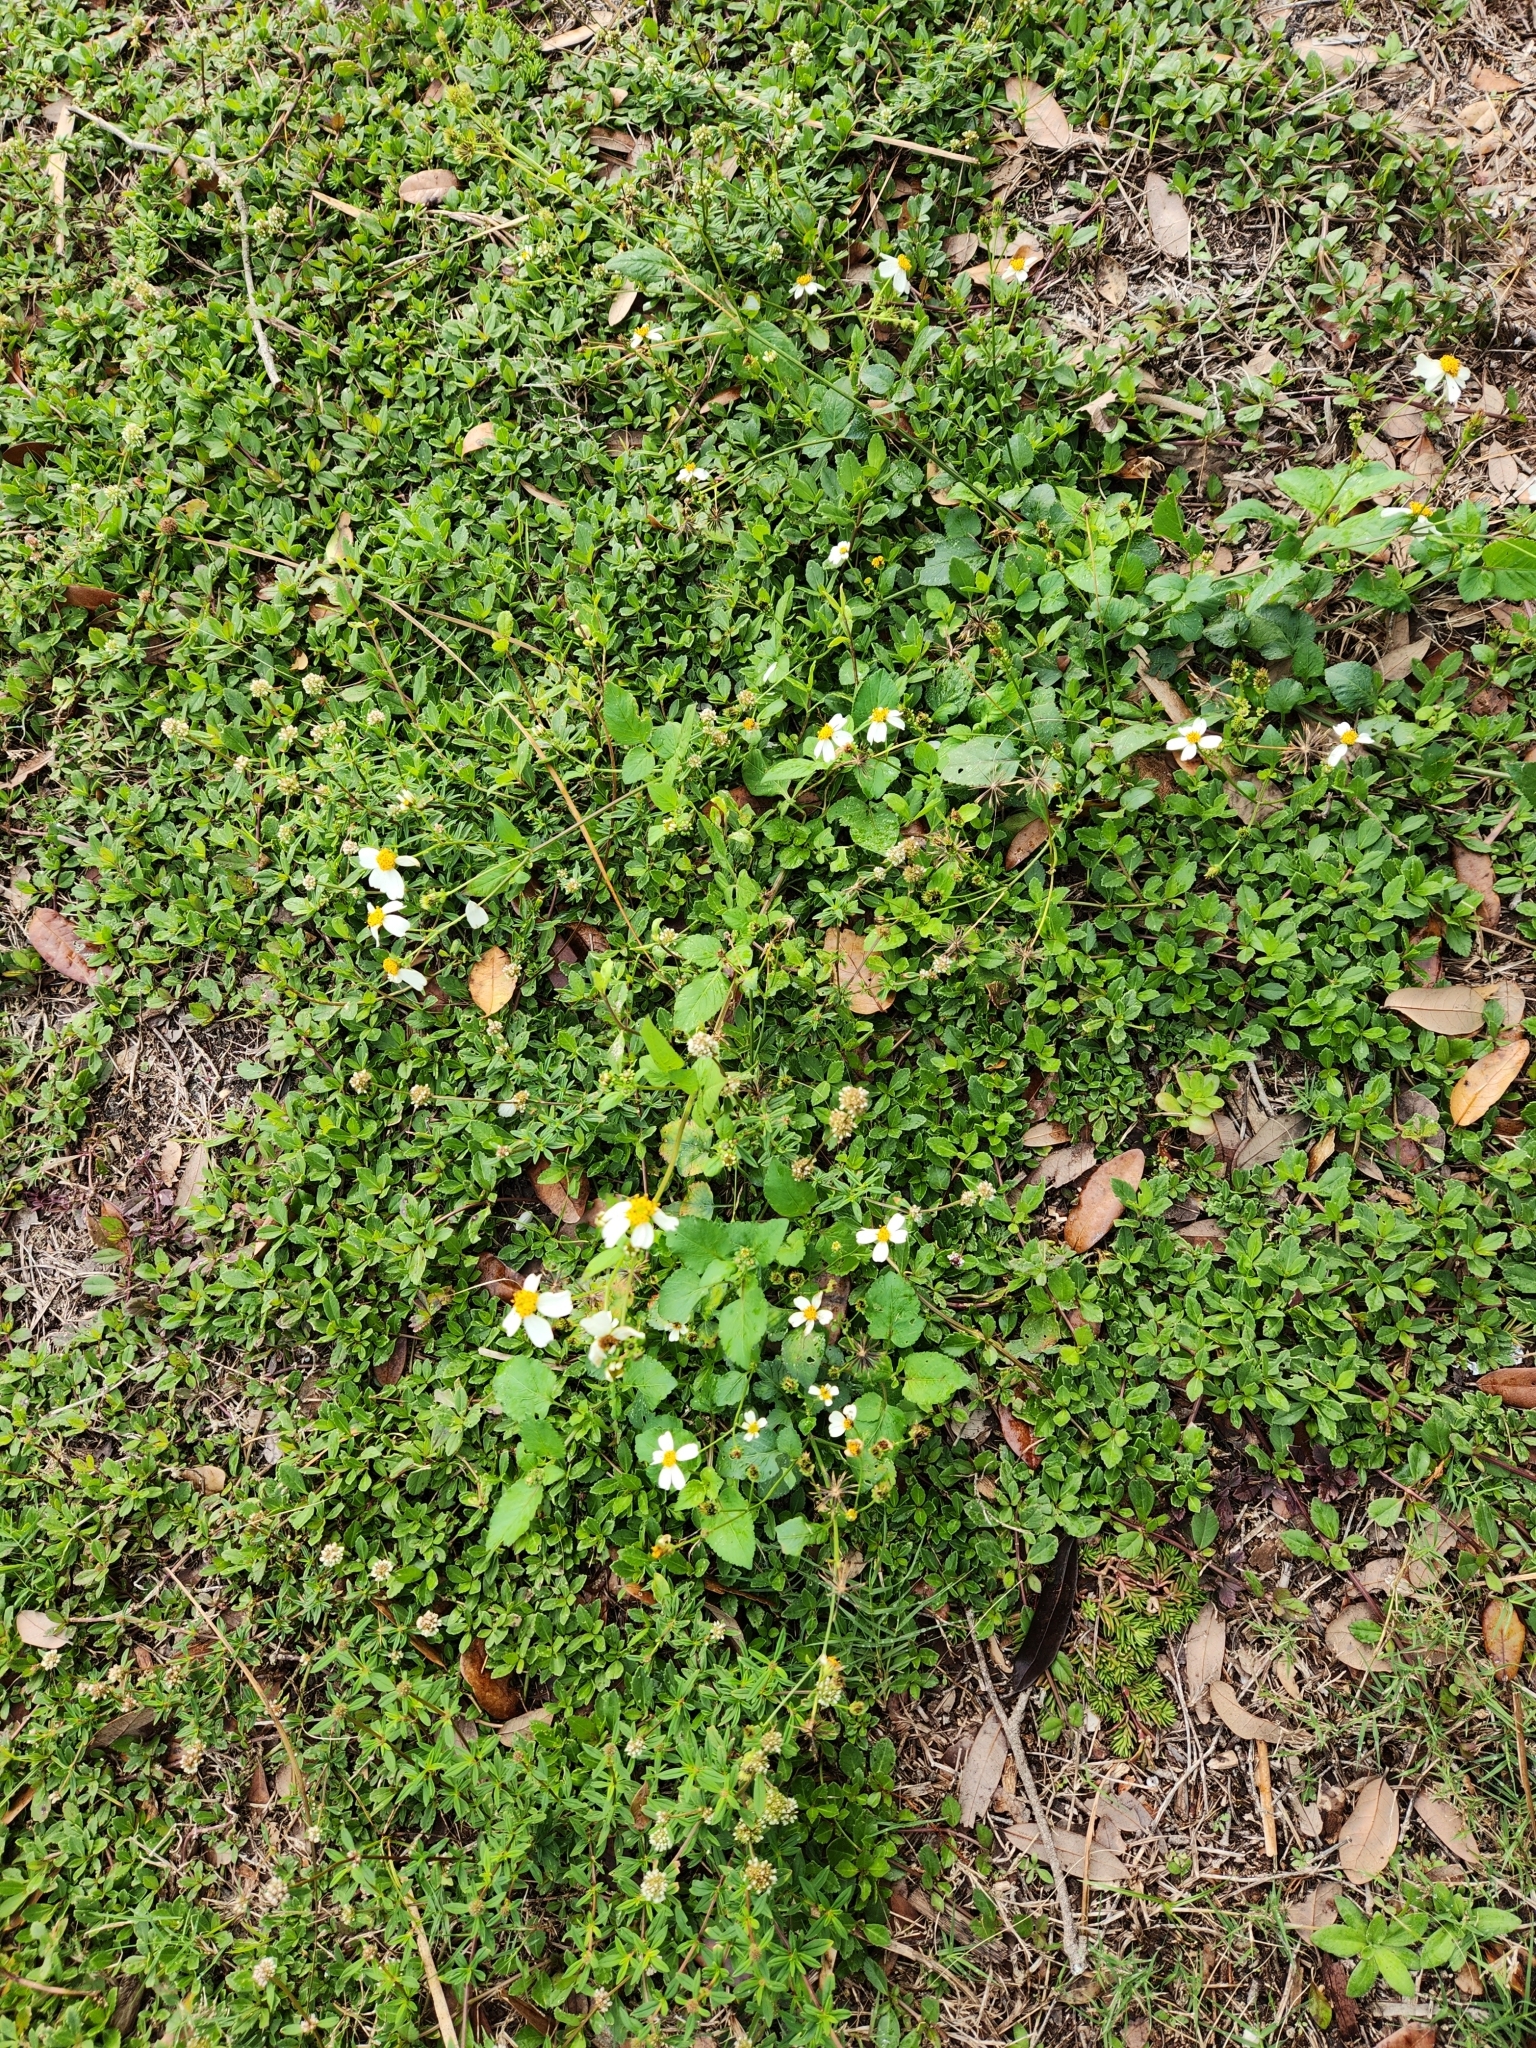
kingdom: Plantae
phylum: Tracheophyta
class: Magnoliopsida
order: Asterales
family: Asteraceae
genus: Bidens
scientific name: Bidens alba
